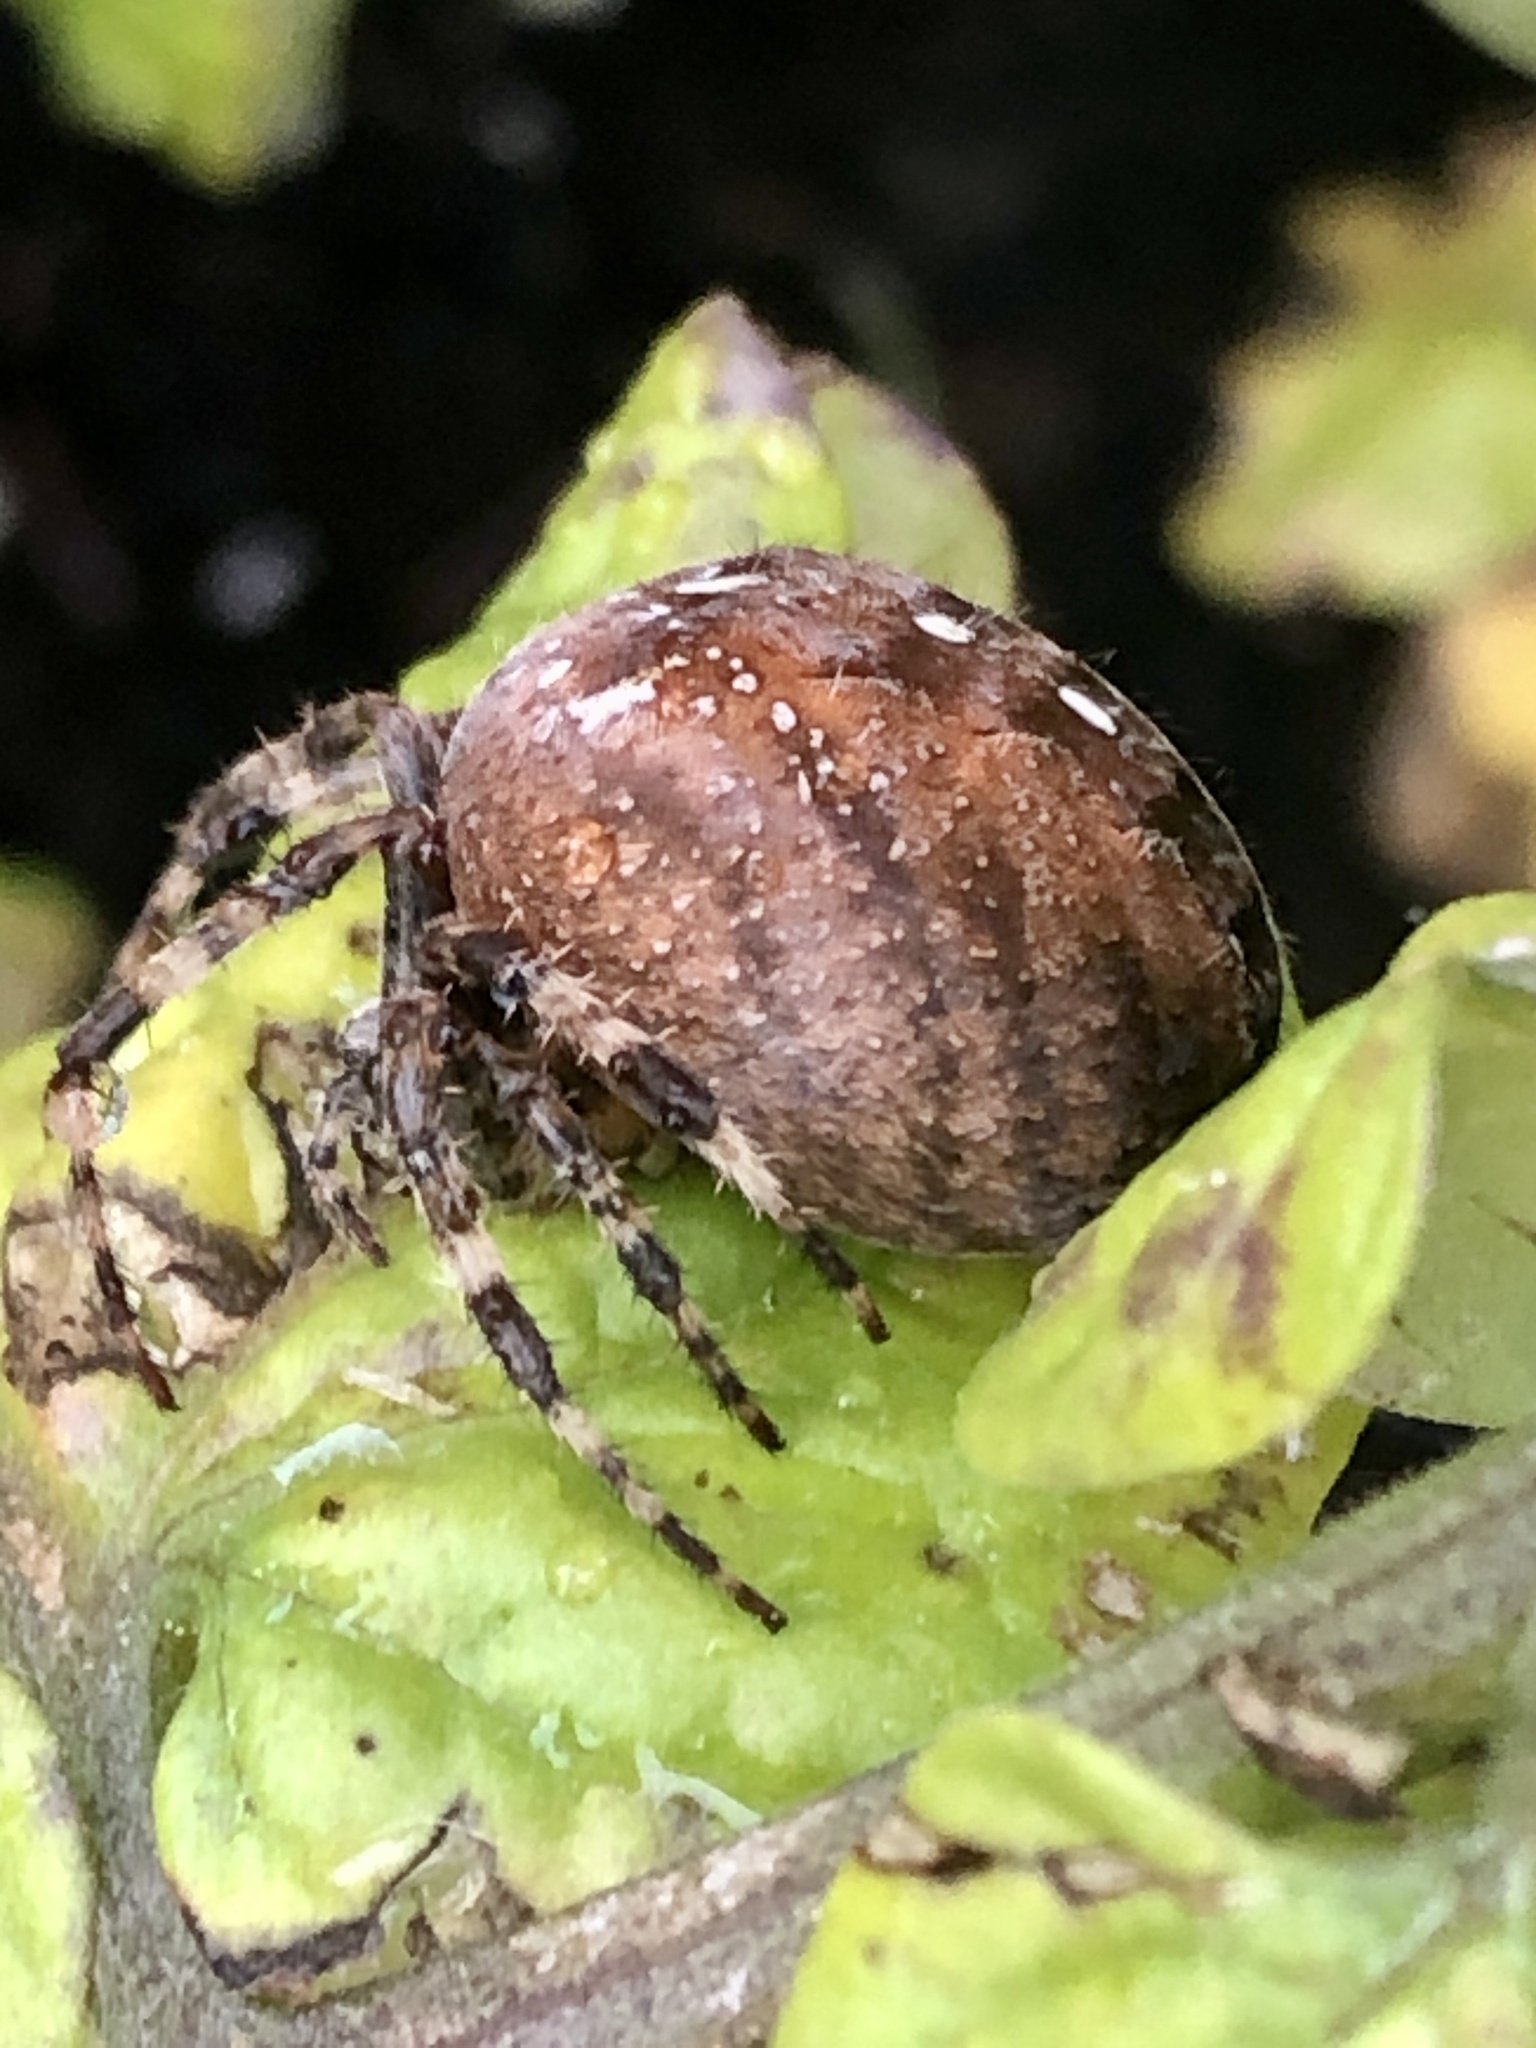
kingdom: Animalia
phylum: Arthropoda
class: Arachnida
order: Araneae
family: Araneidae
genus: Araneus
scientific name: Araneus diadematus
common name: Cross orbweaver
